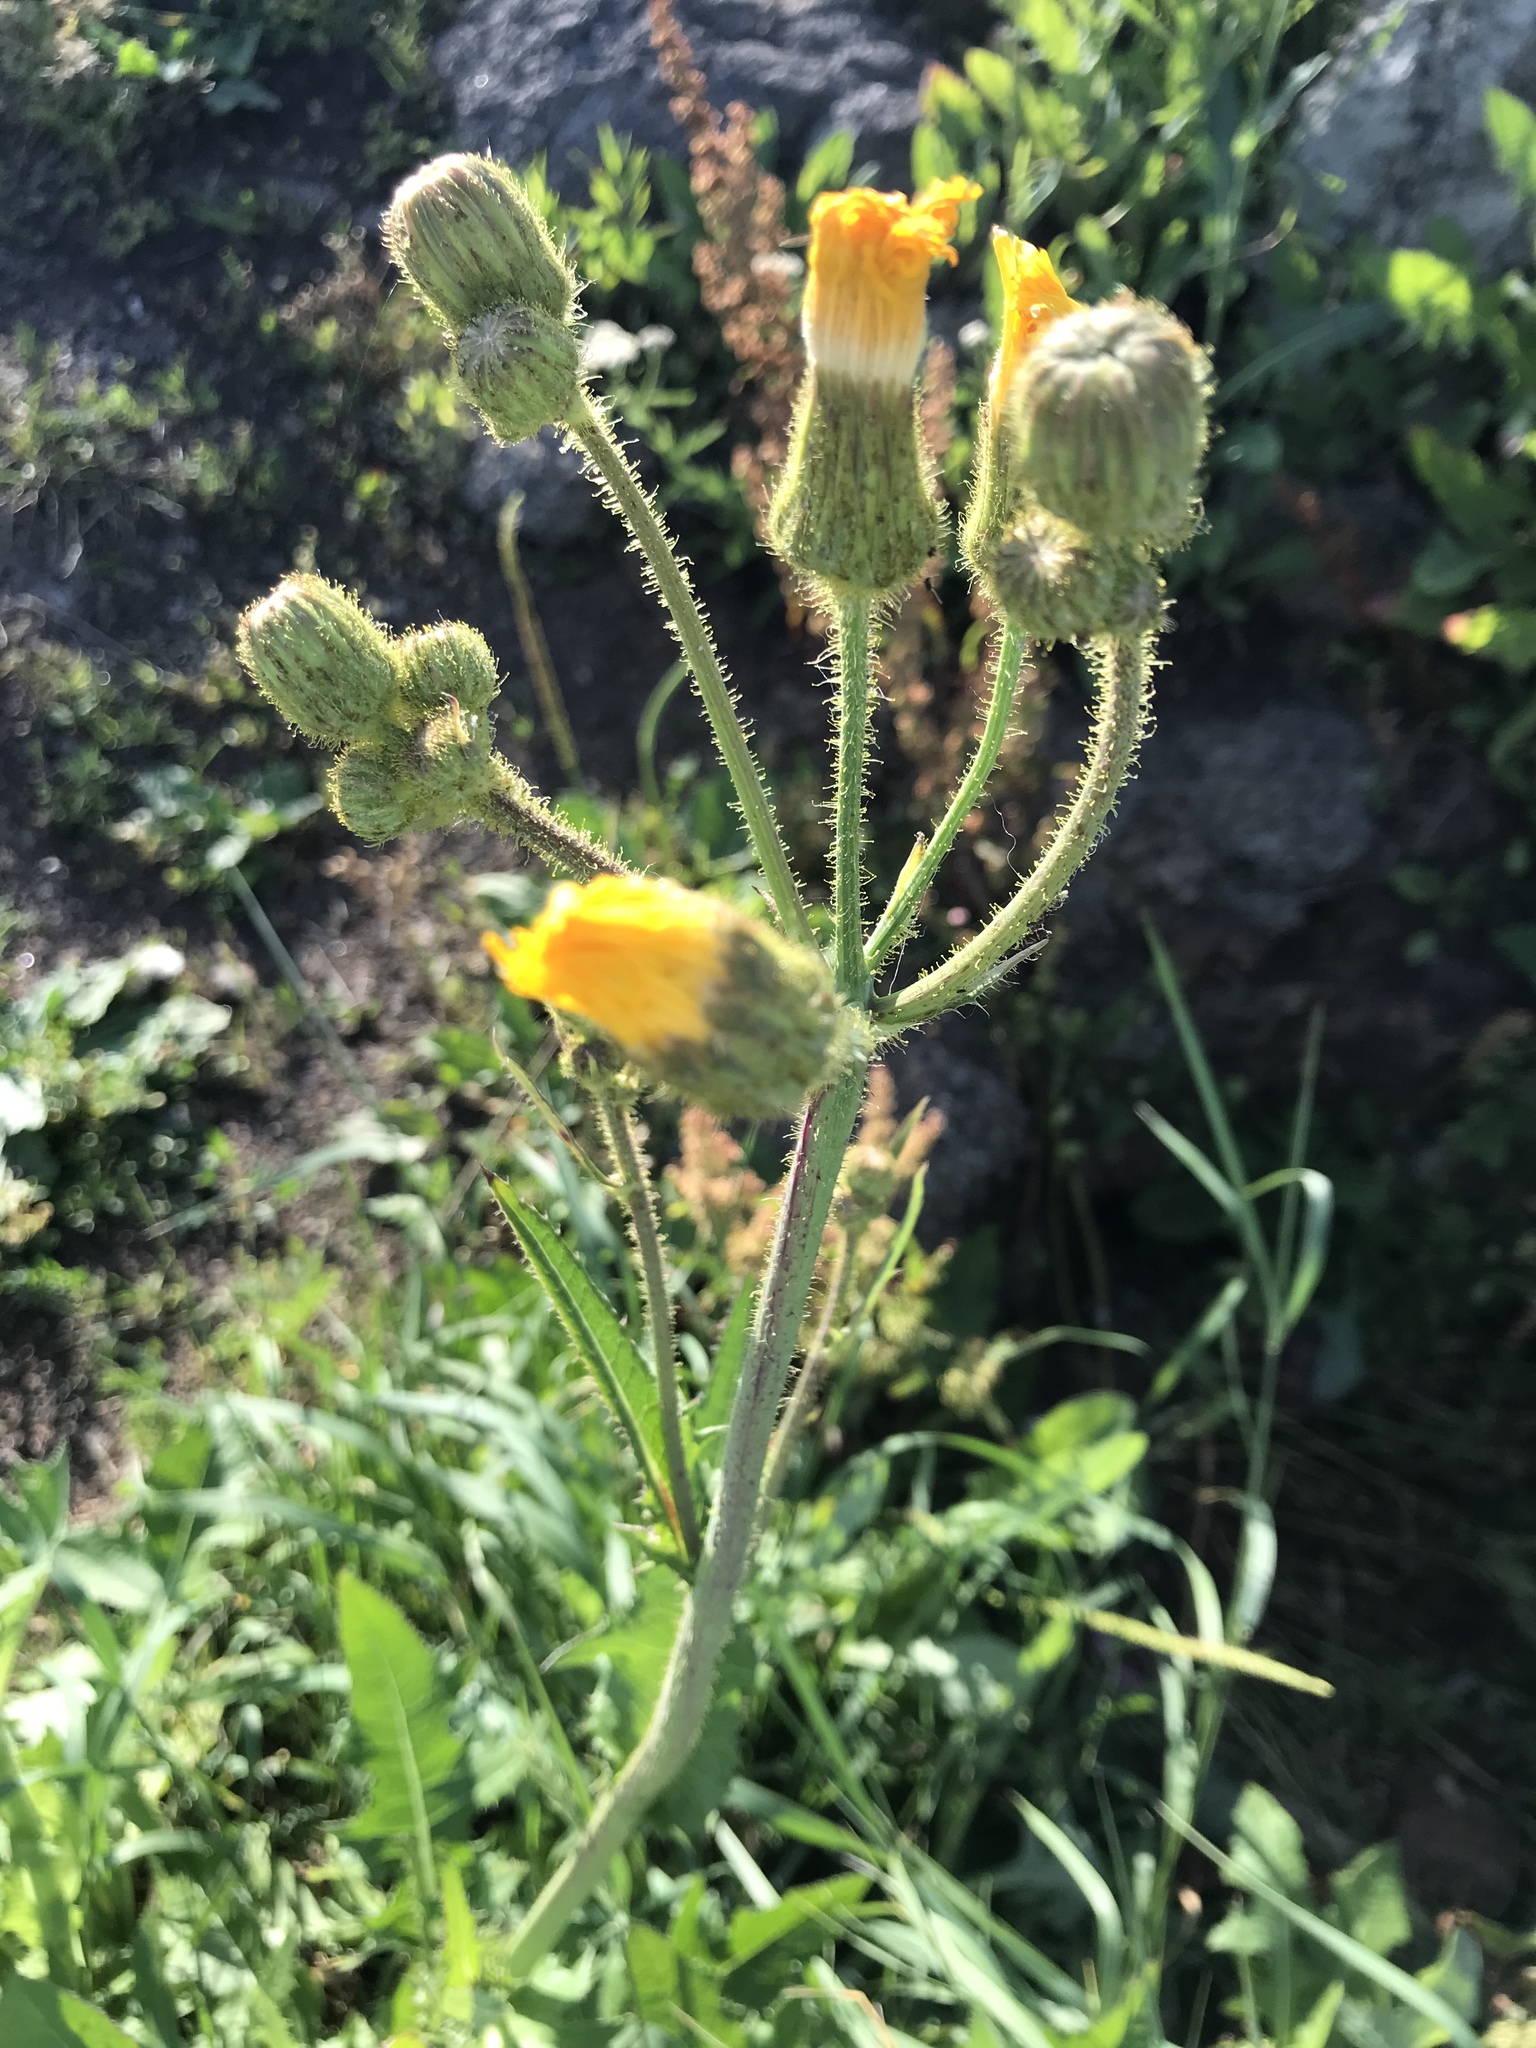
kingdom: Plantae
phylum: Tracheophyta
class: Magnoliopsida
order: Asterales
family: Asteraceae
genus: Sonchus
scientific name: Sonchus arvensis
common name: Perennial sow-thistle
